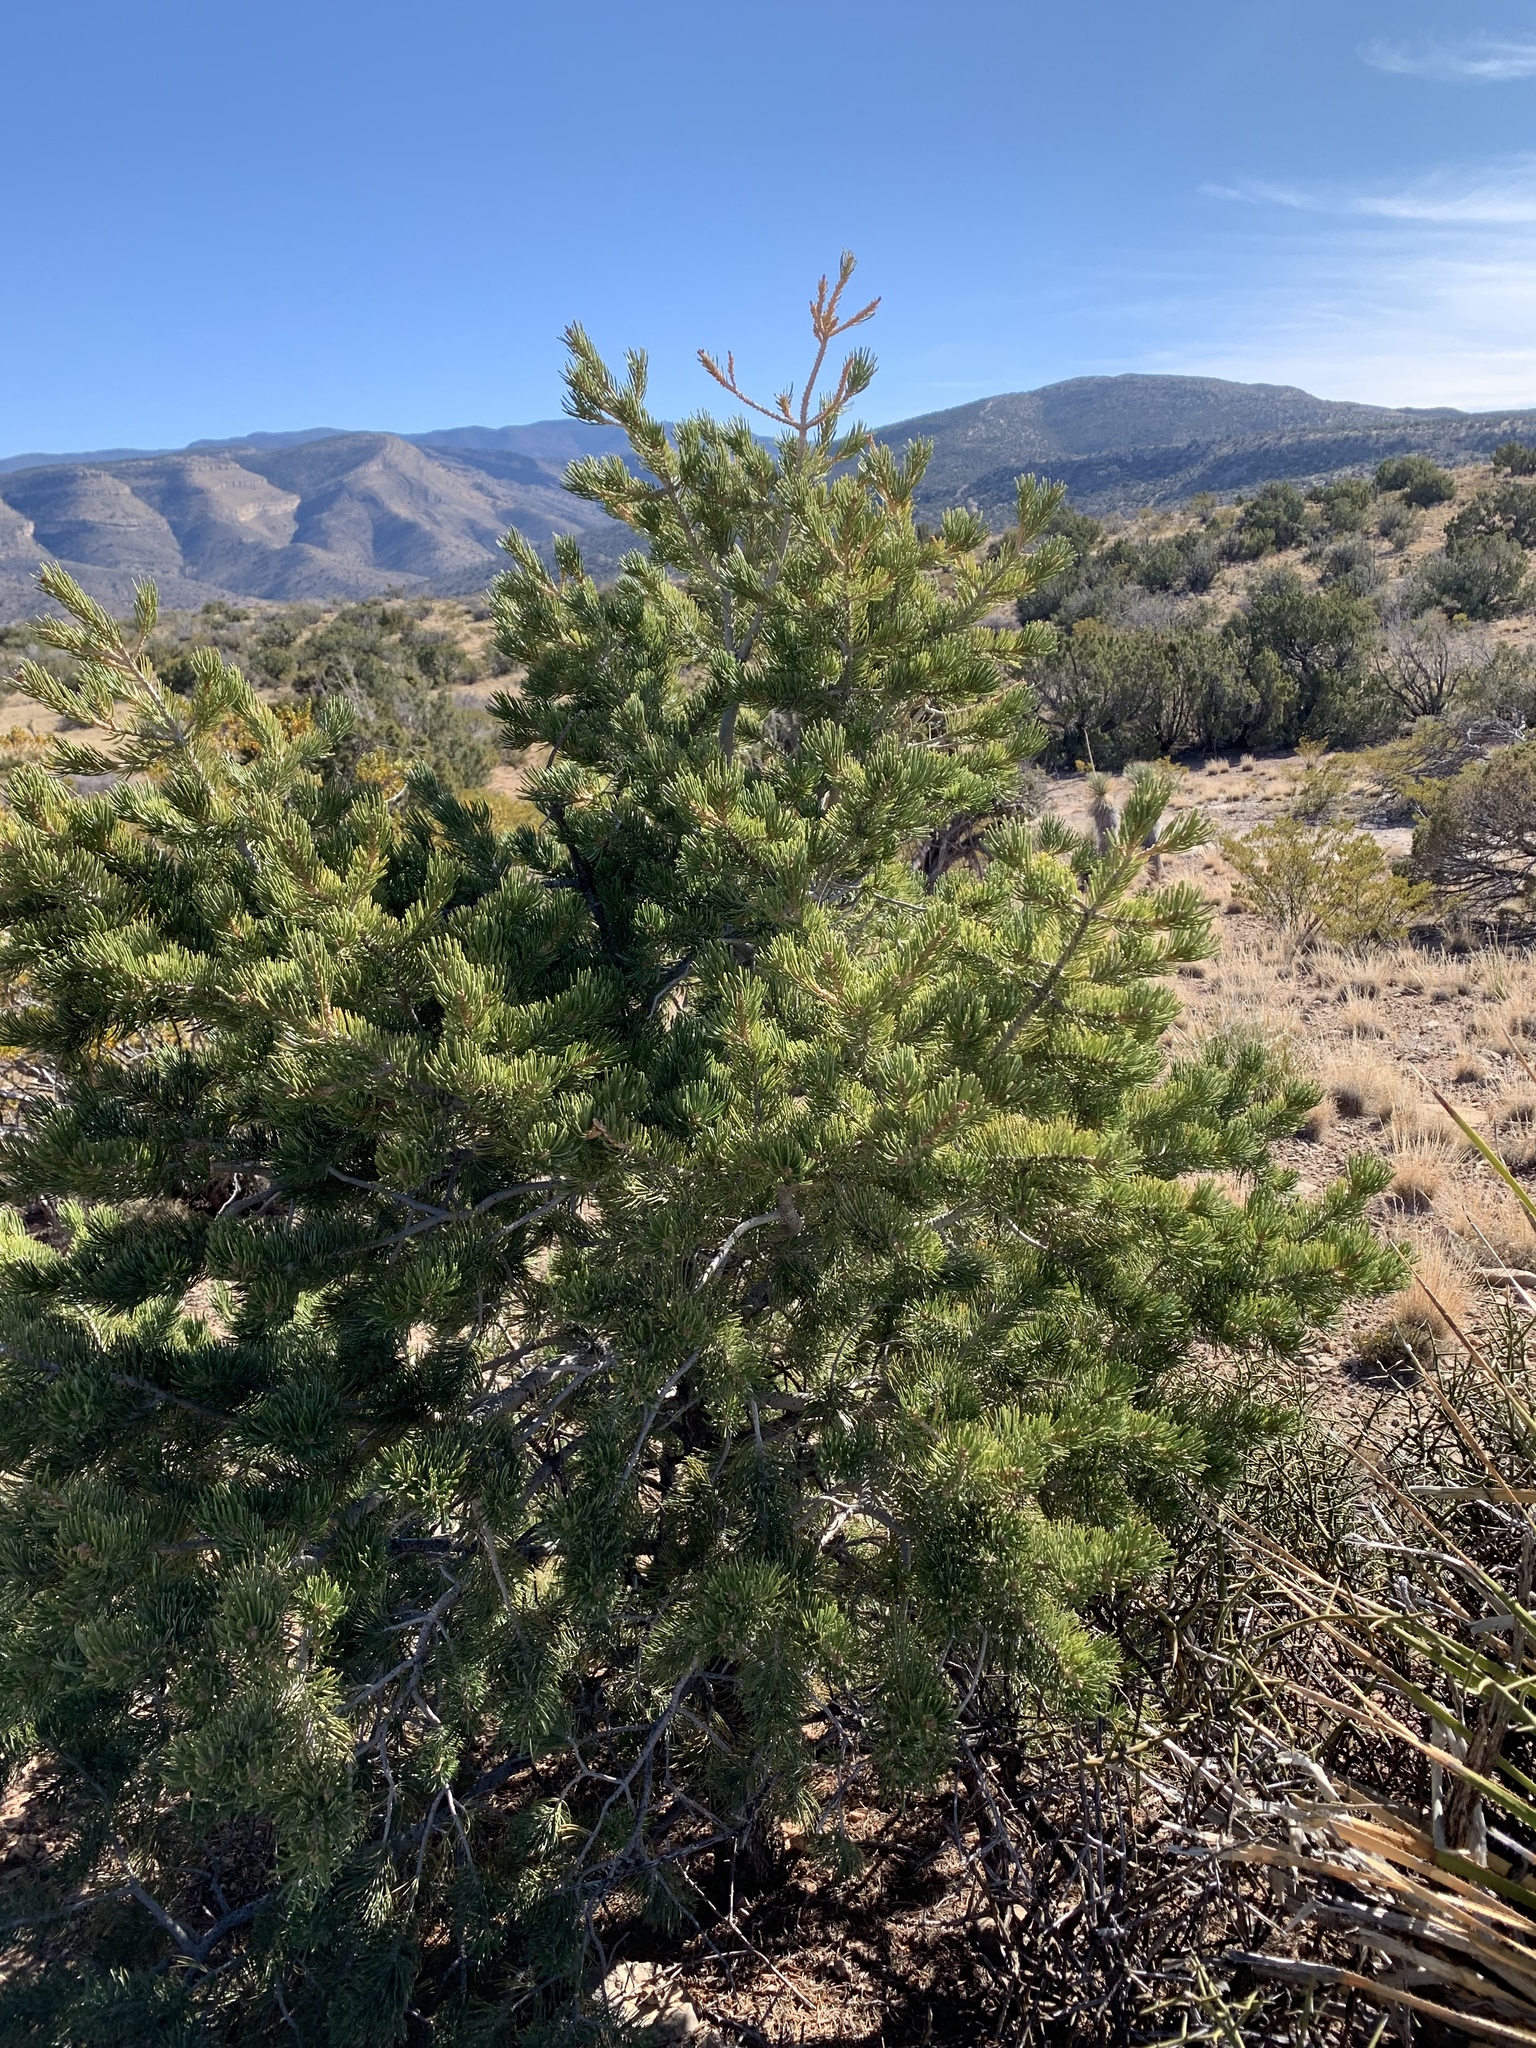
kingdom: Plantae
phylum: Tracheophyta
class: Pinopsida
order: Pinales
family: Pinaceae
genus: Pinus
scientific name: Pinus edulis
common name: Colorado pinyon
